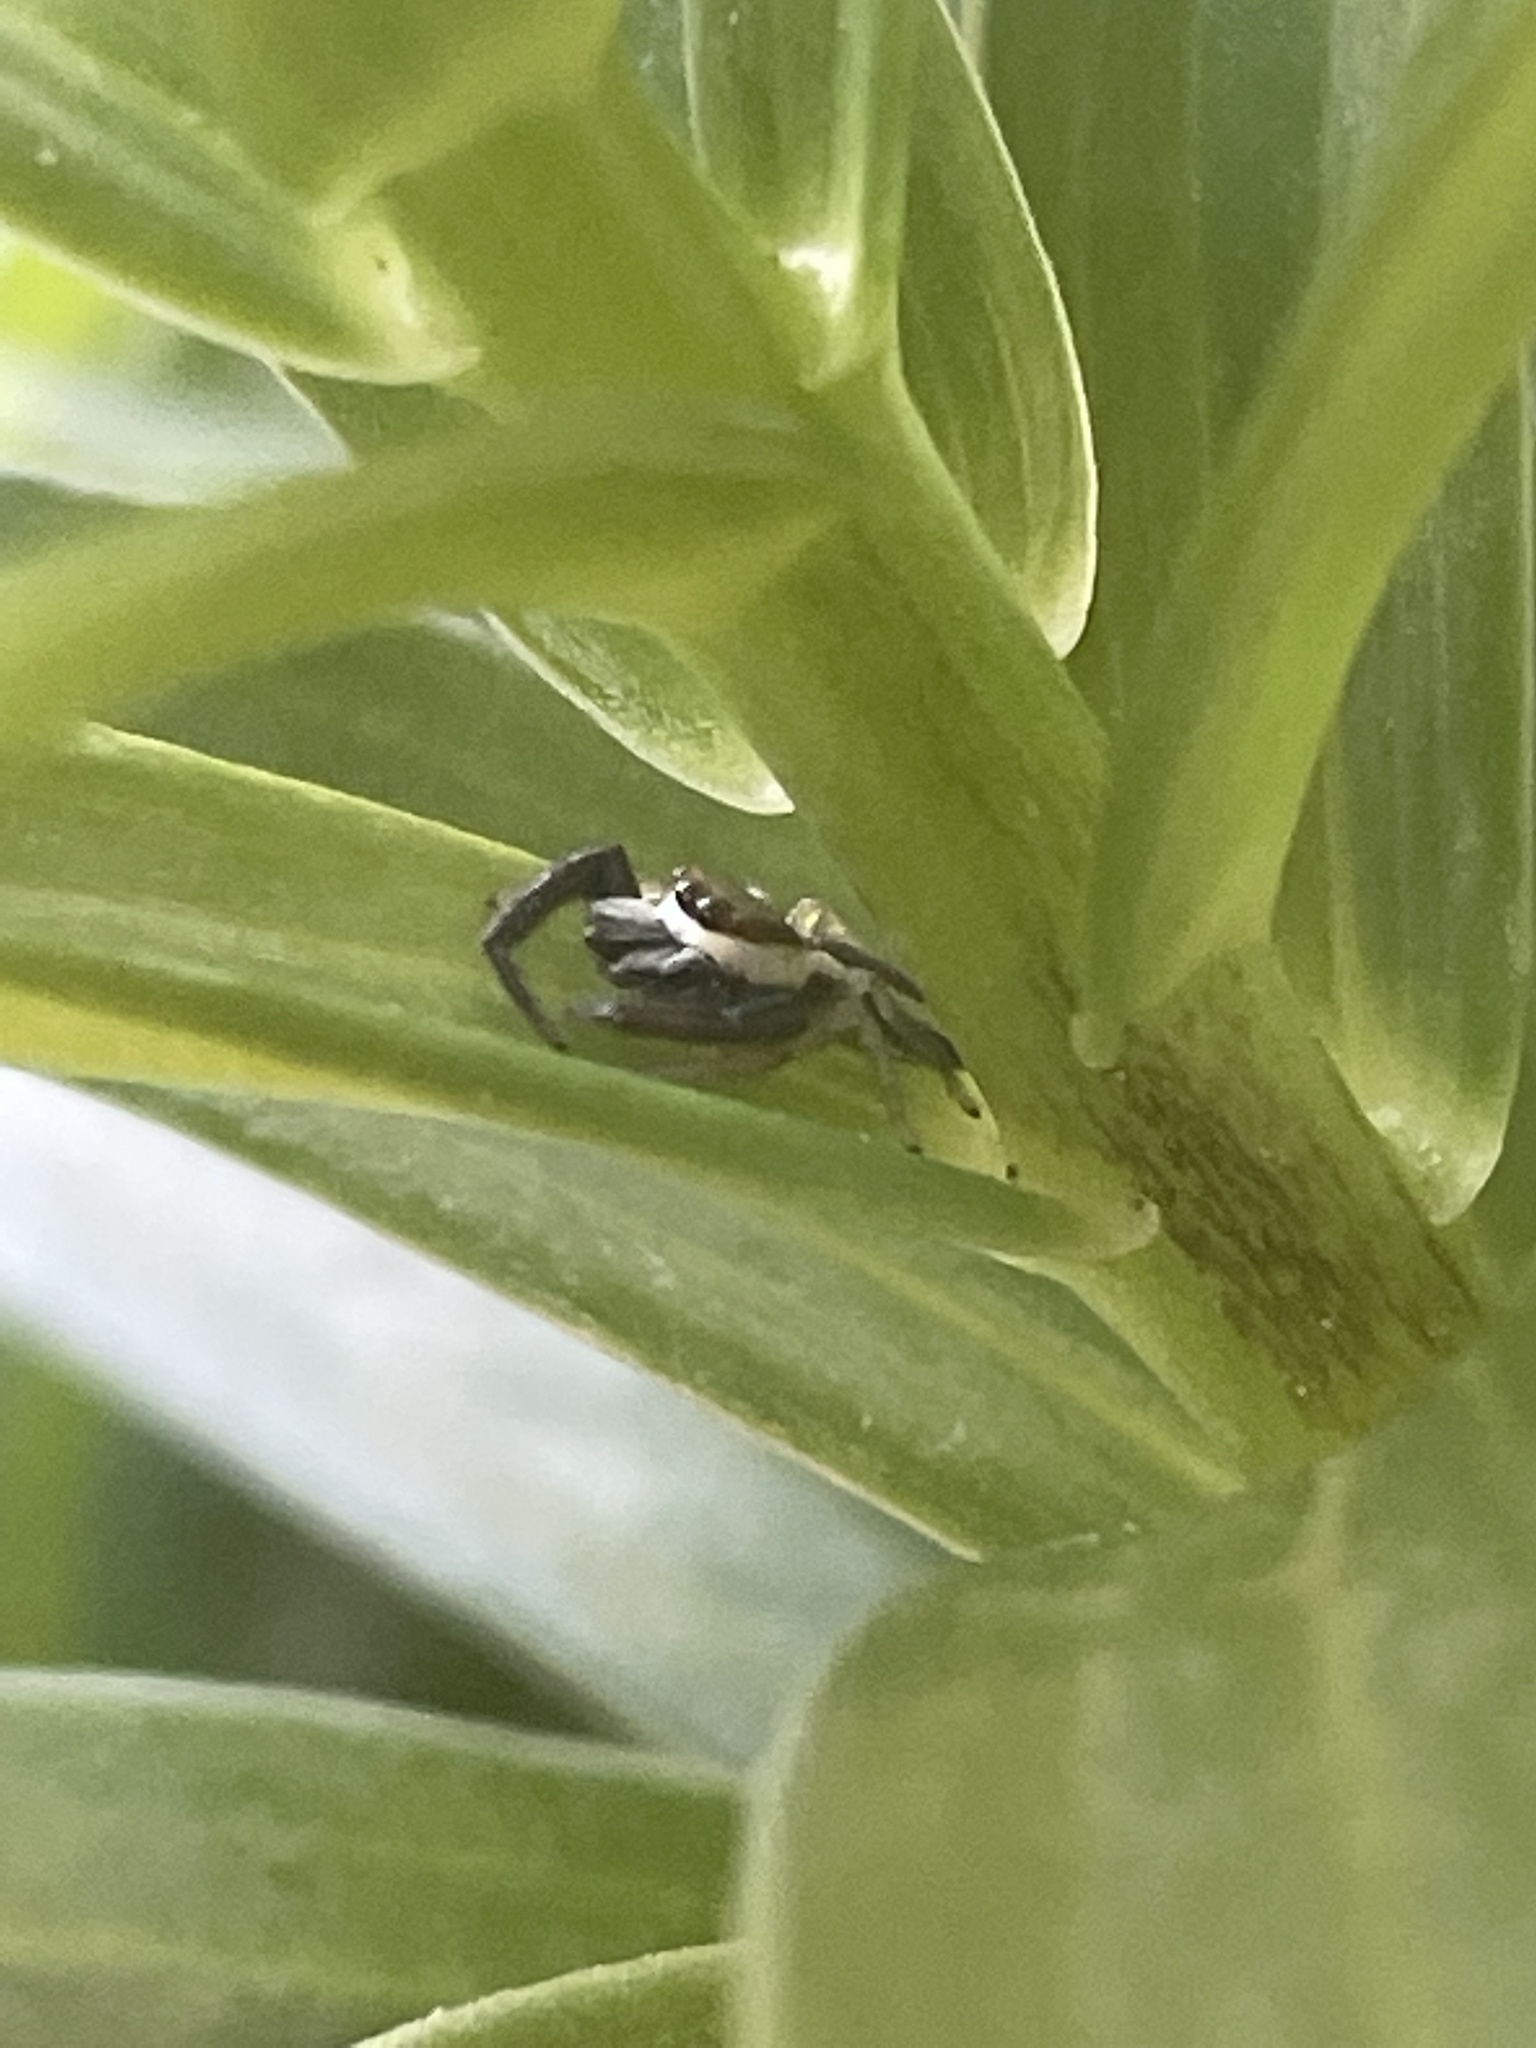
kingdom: Animalia
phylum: Arthropoda
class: Arachnida
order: Araneae
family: Salticidae
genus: Hentzia
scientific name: Hentzia palmarum
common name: Common hentz jumping spider
